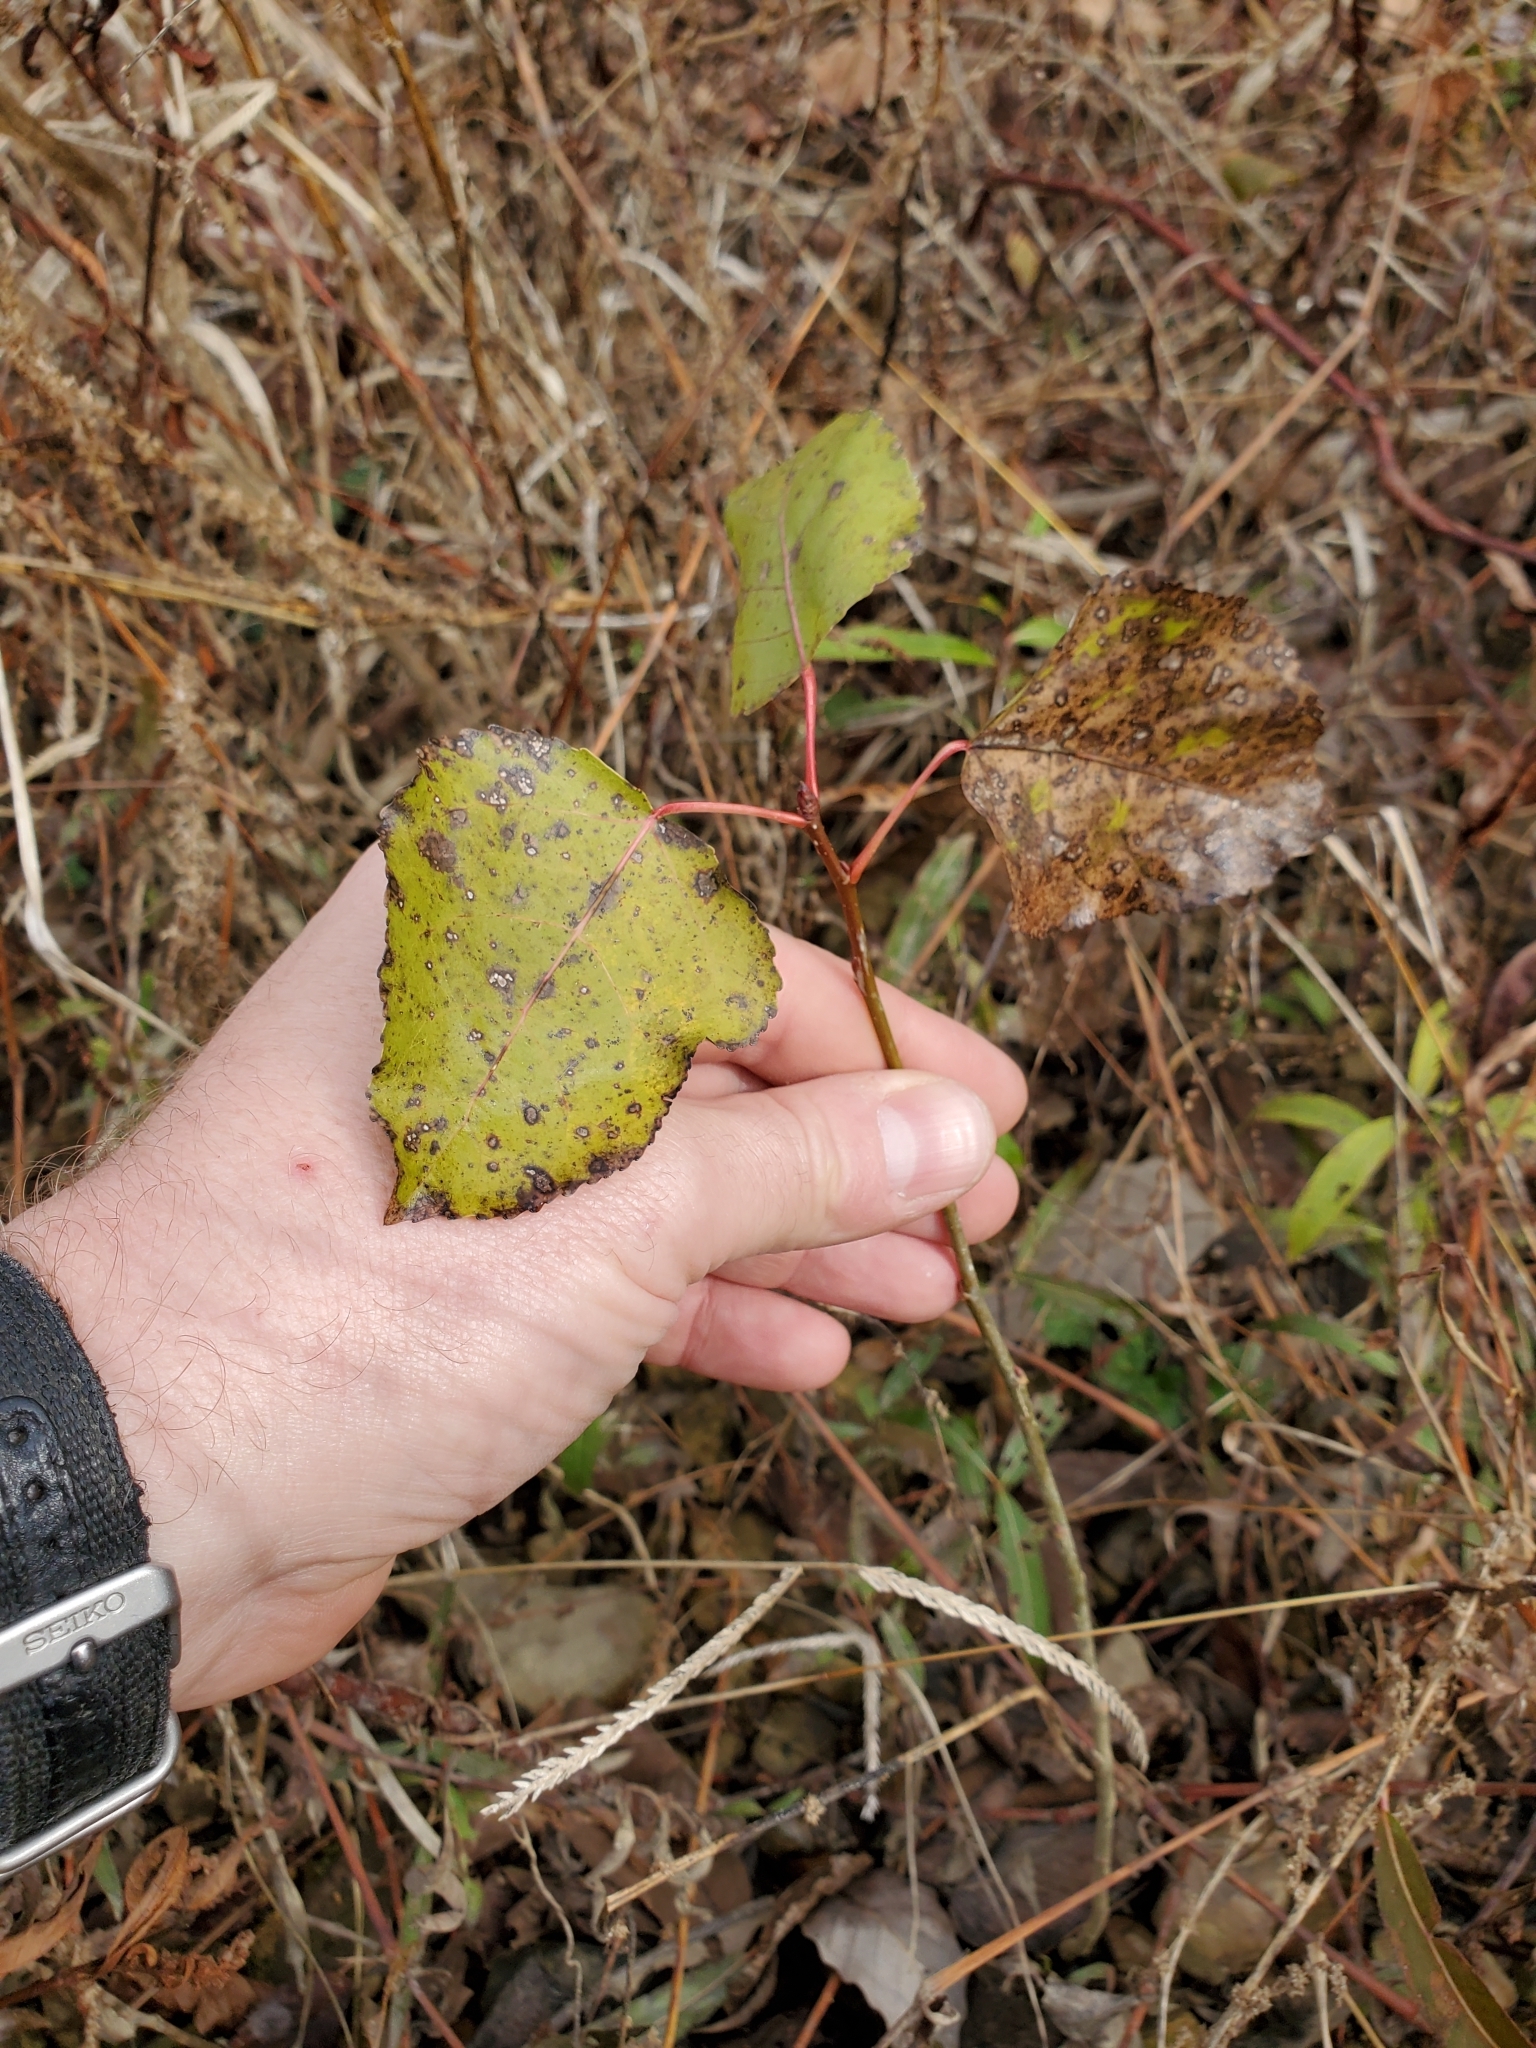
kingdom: Plantae
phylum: Tracheophyta
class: Magnoliopsida
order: Malpighiales
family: Salicaceae
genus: Populus
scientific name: Populus deltoides
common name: Eastern cottonwood
